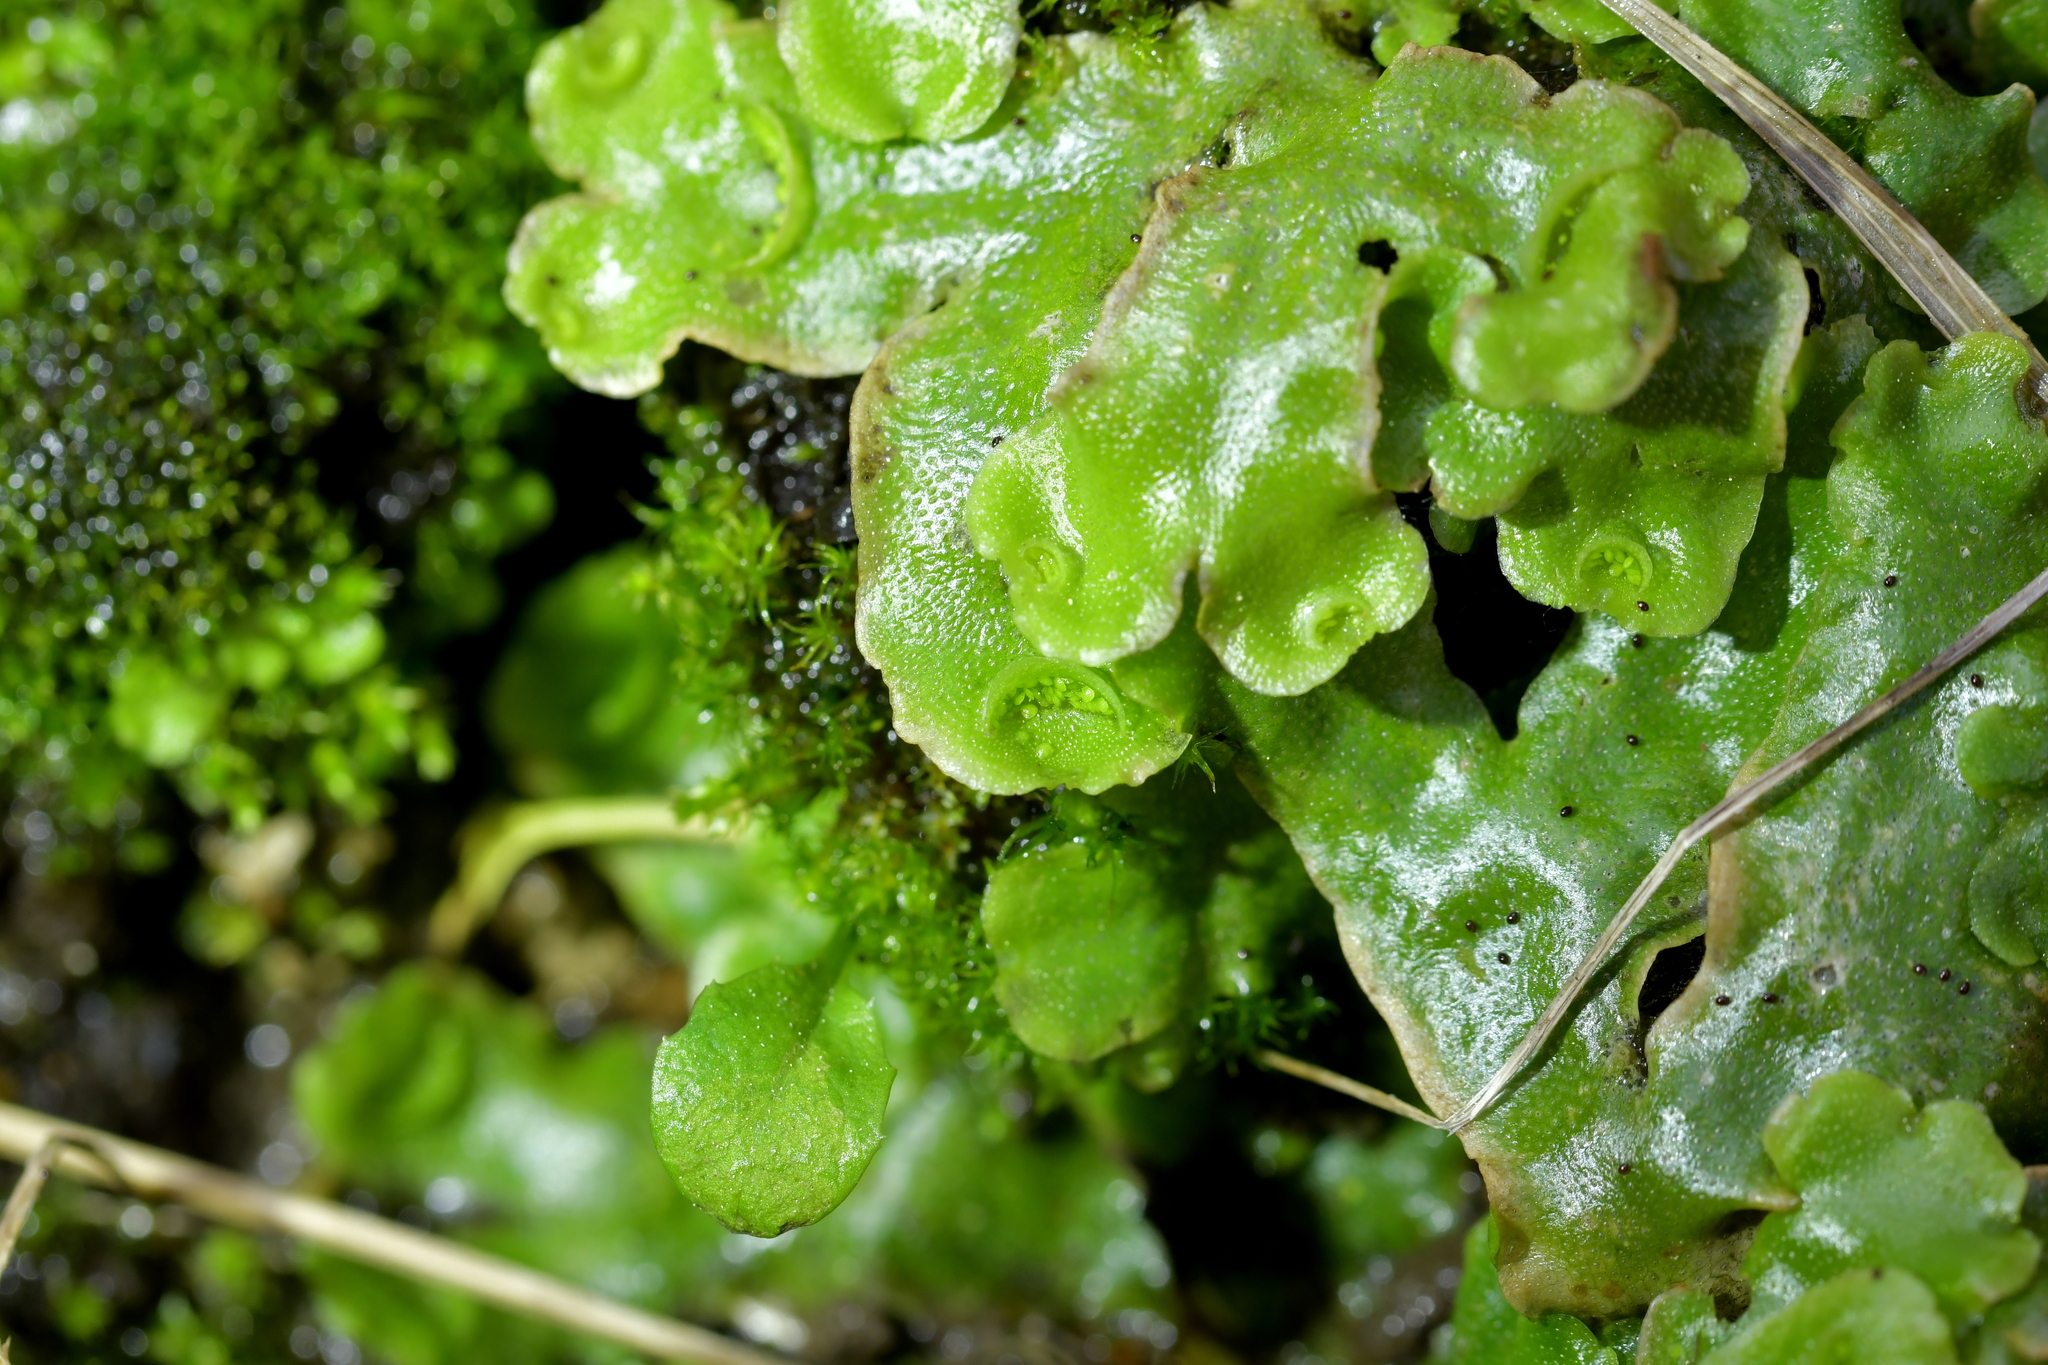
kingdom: Plantae
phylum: Marchantiophyta
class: Marchantiopsida
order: Lunulariales
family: Lunulariaceae
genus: Lunularia
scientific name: Lunularia cruciata
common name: Crescent-cup liverwort
